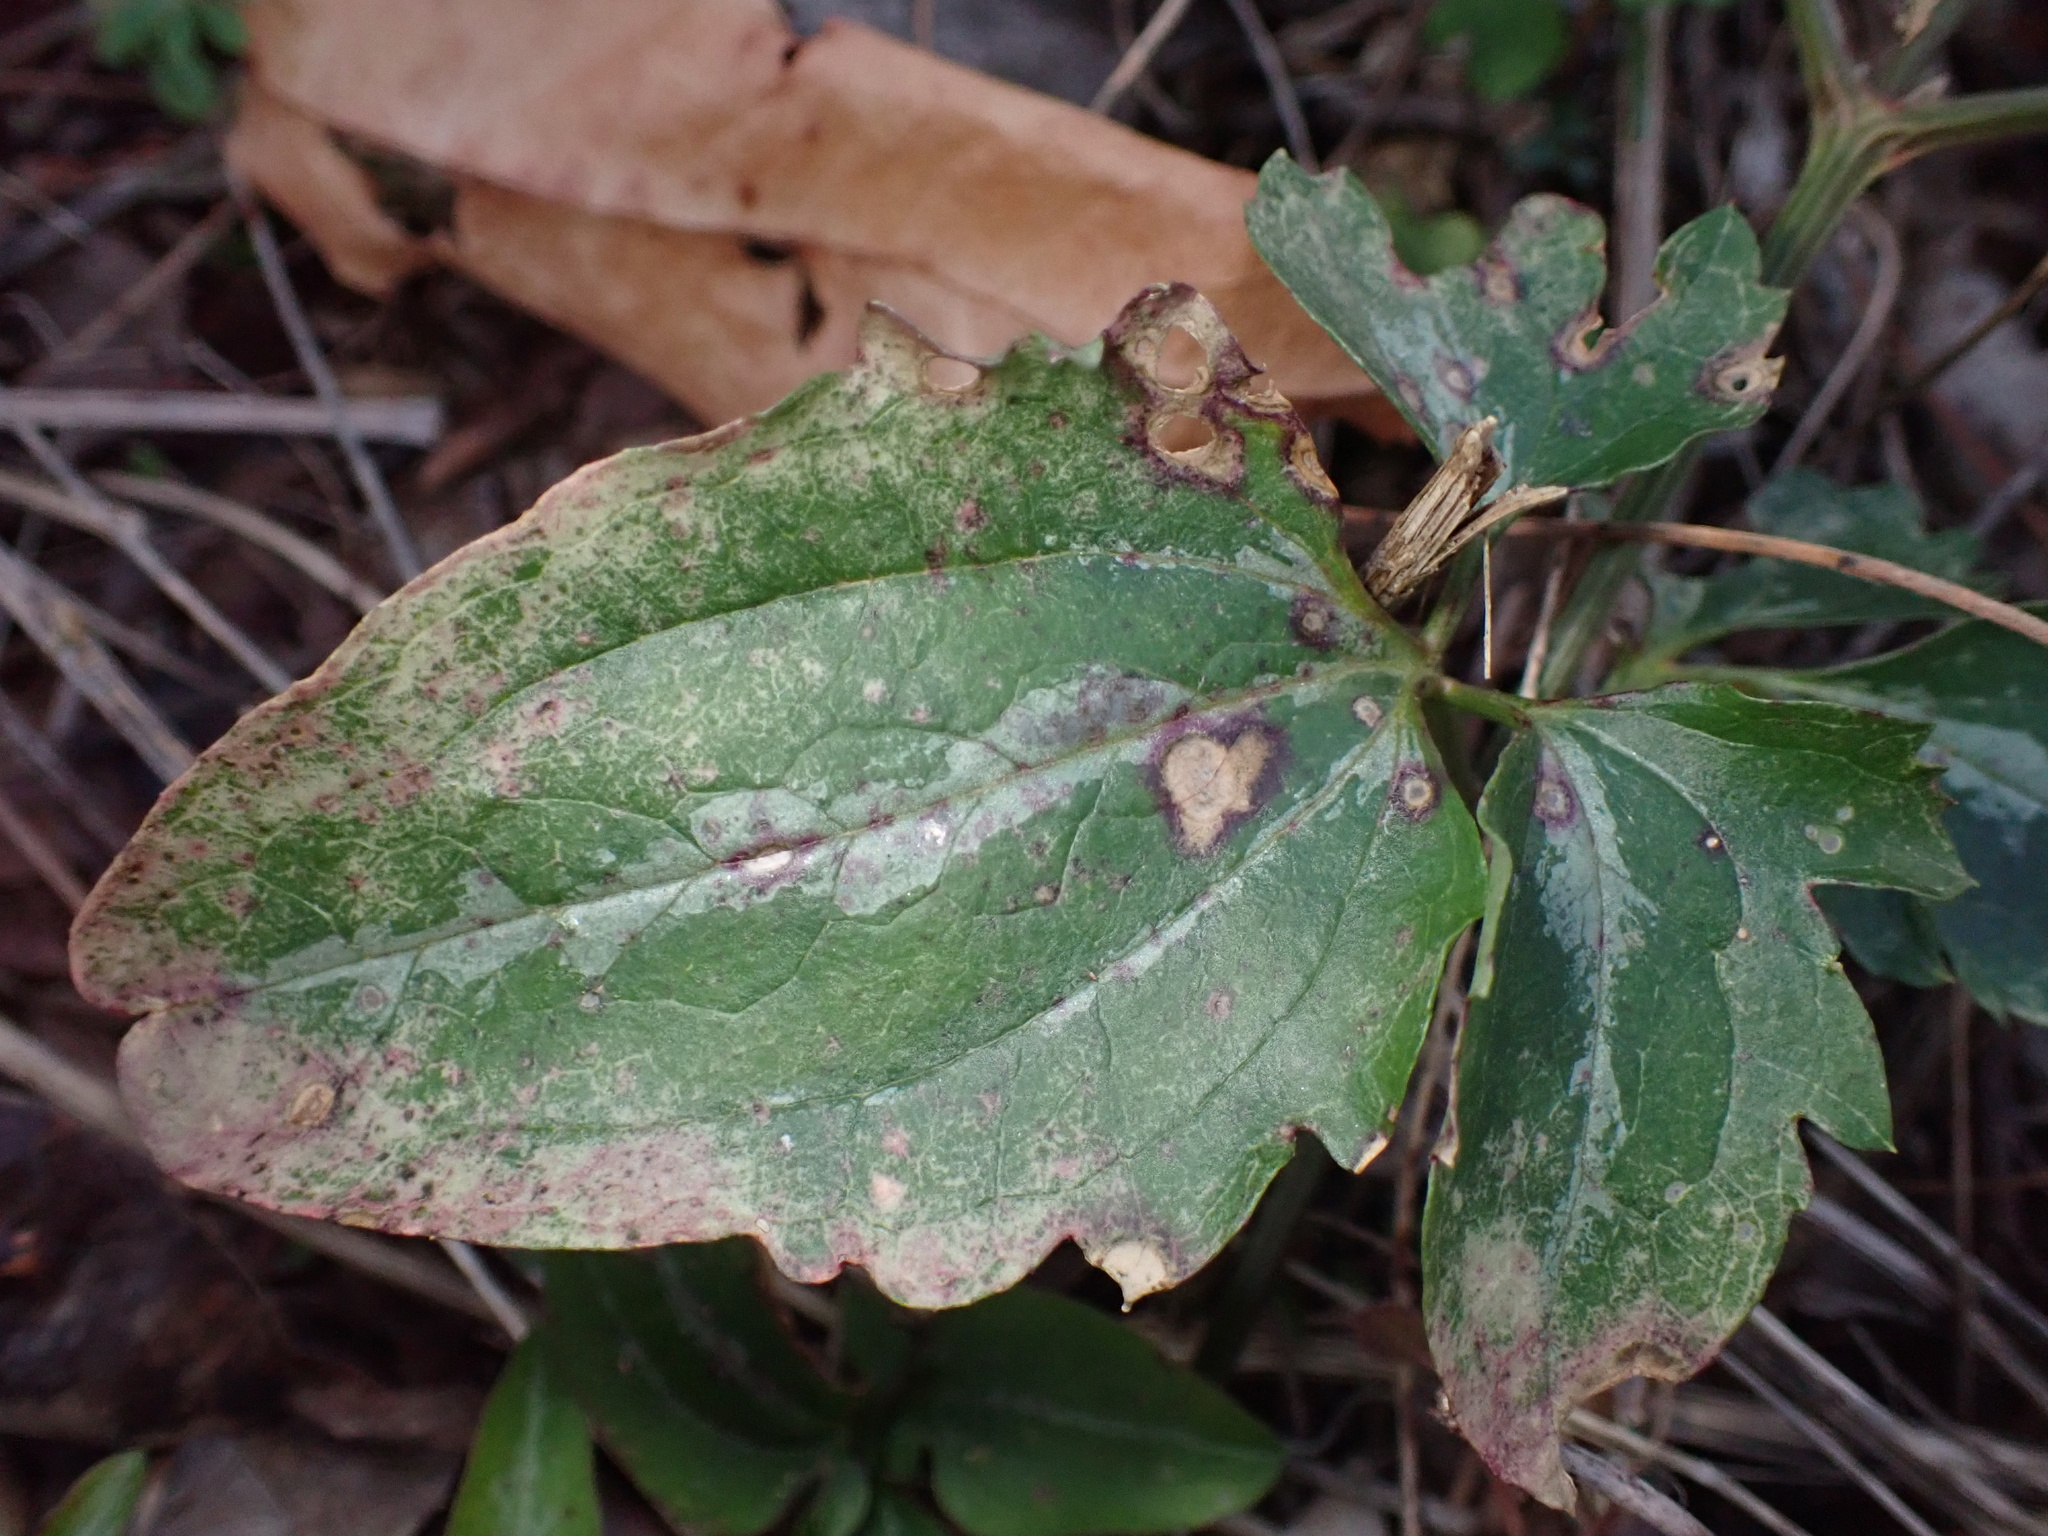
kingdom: Plantae
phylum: Tracheophyta
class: Magnoliopsida
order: Ranunculales
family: Ranunculaceae
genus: Clematis
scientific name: Clematis terniflora
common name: Sweet autumn clematis
